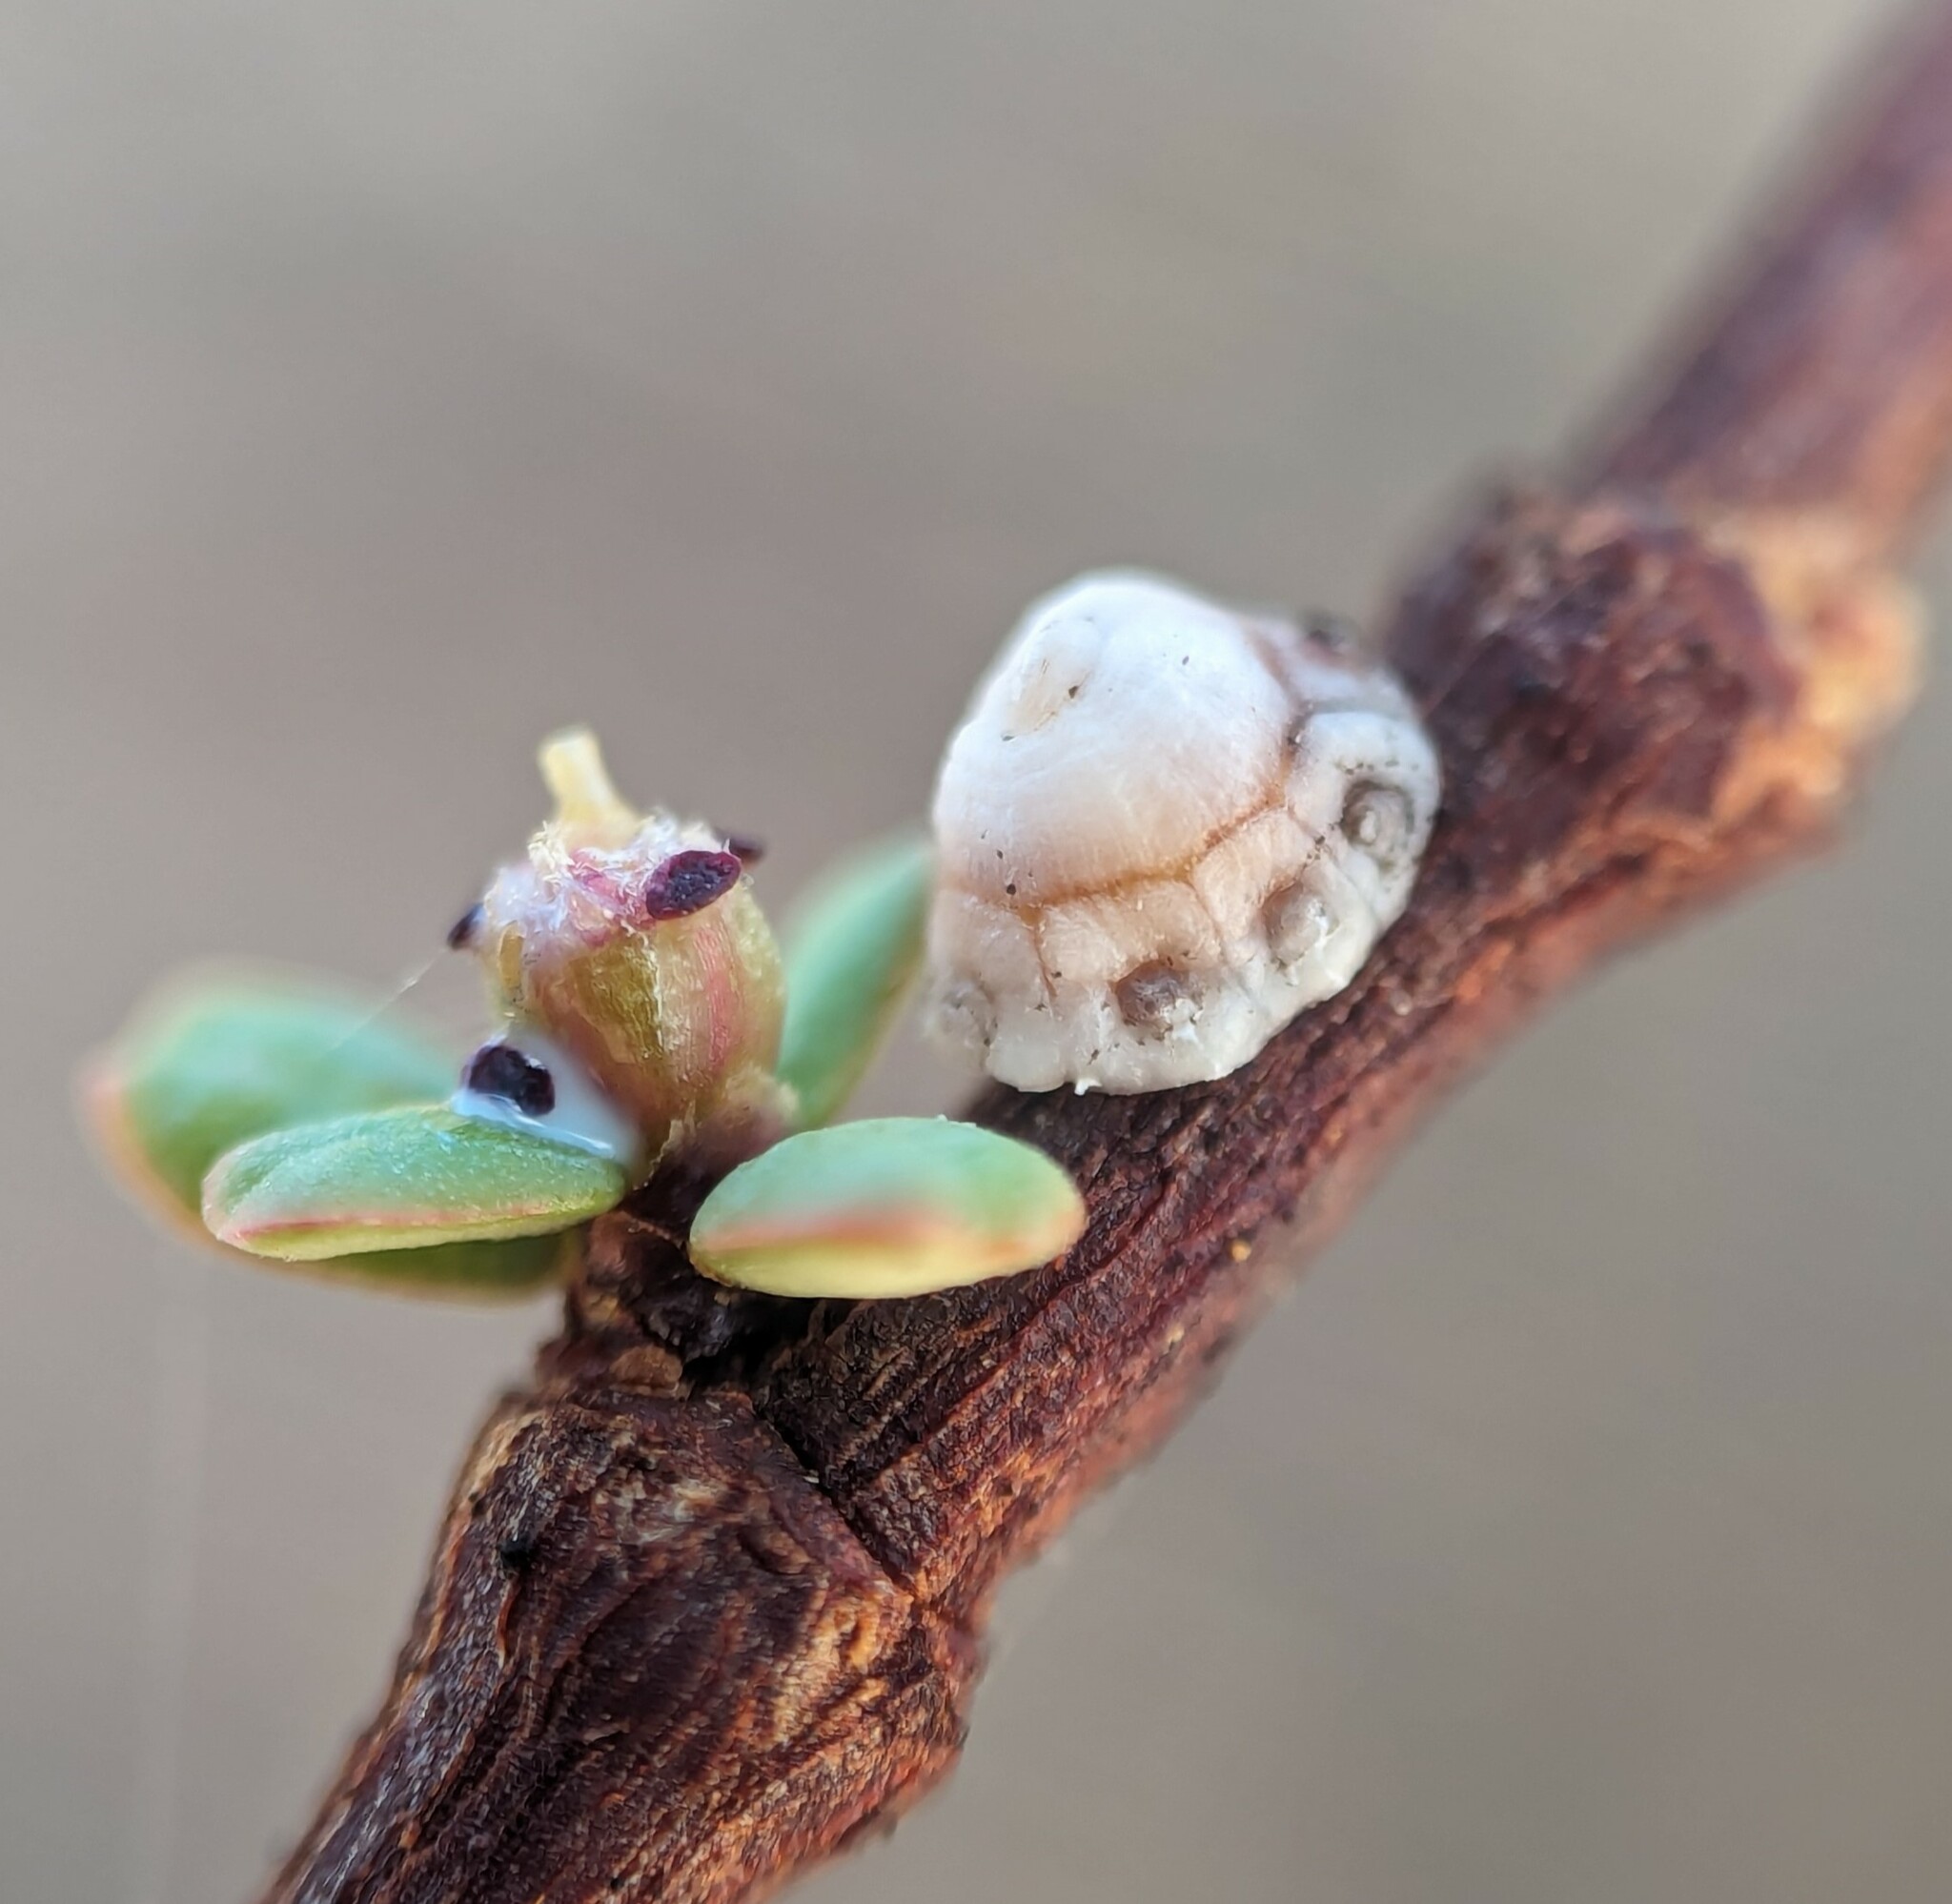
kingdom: Animalia
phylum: Arthropoda
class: Insecta
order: Hemiptera
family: Coccidae
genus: Ceroplastes
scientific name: Ceroplastes cirripediformis
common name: Barnacle scale
